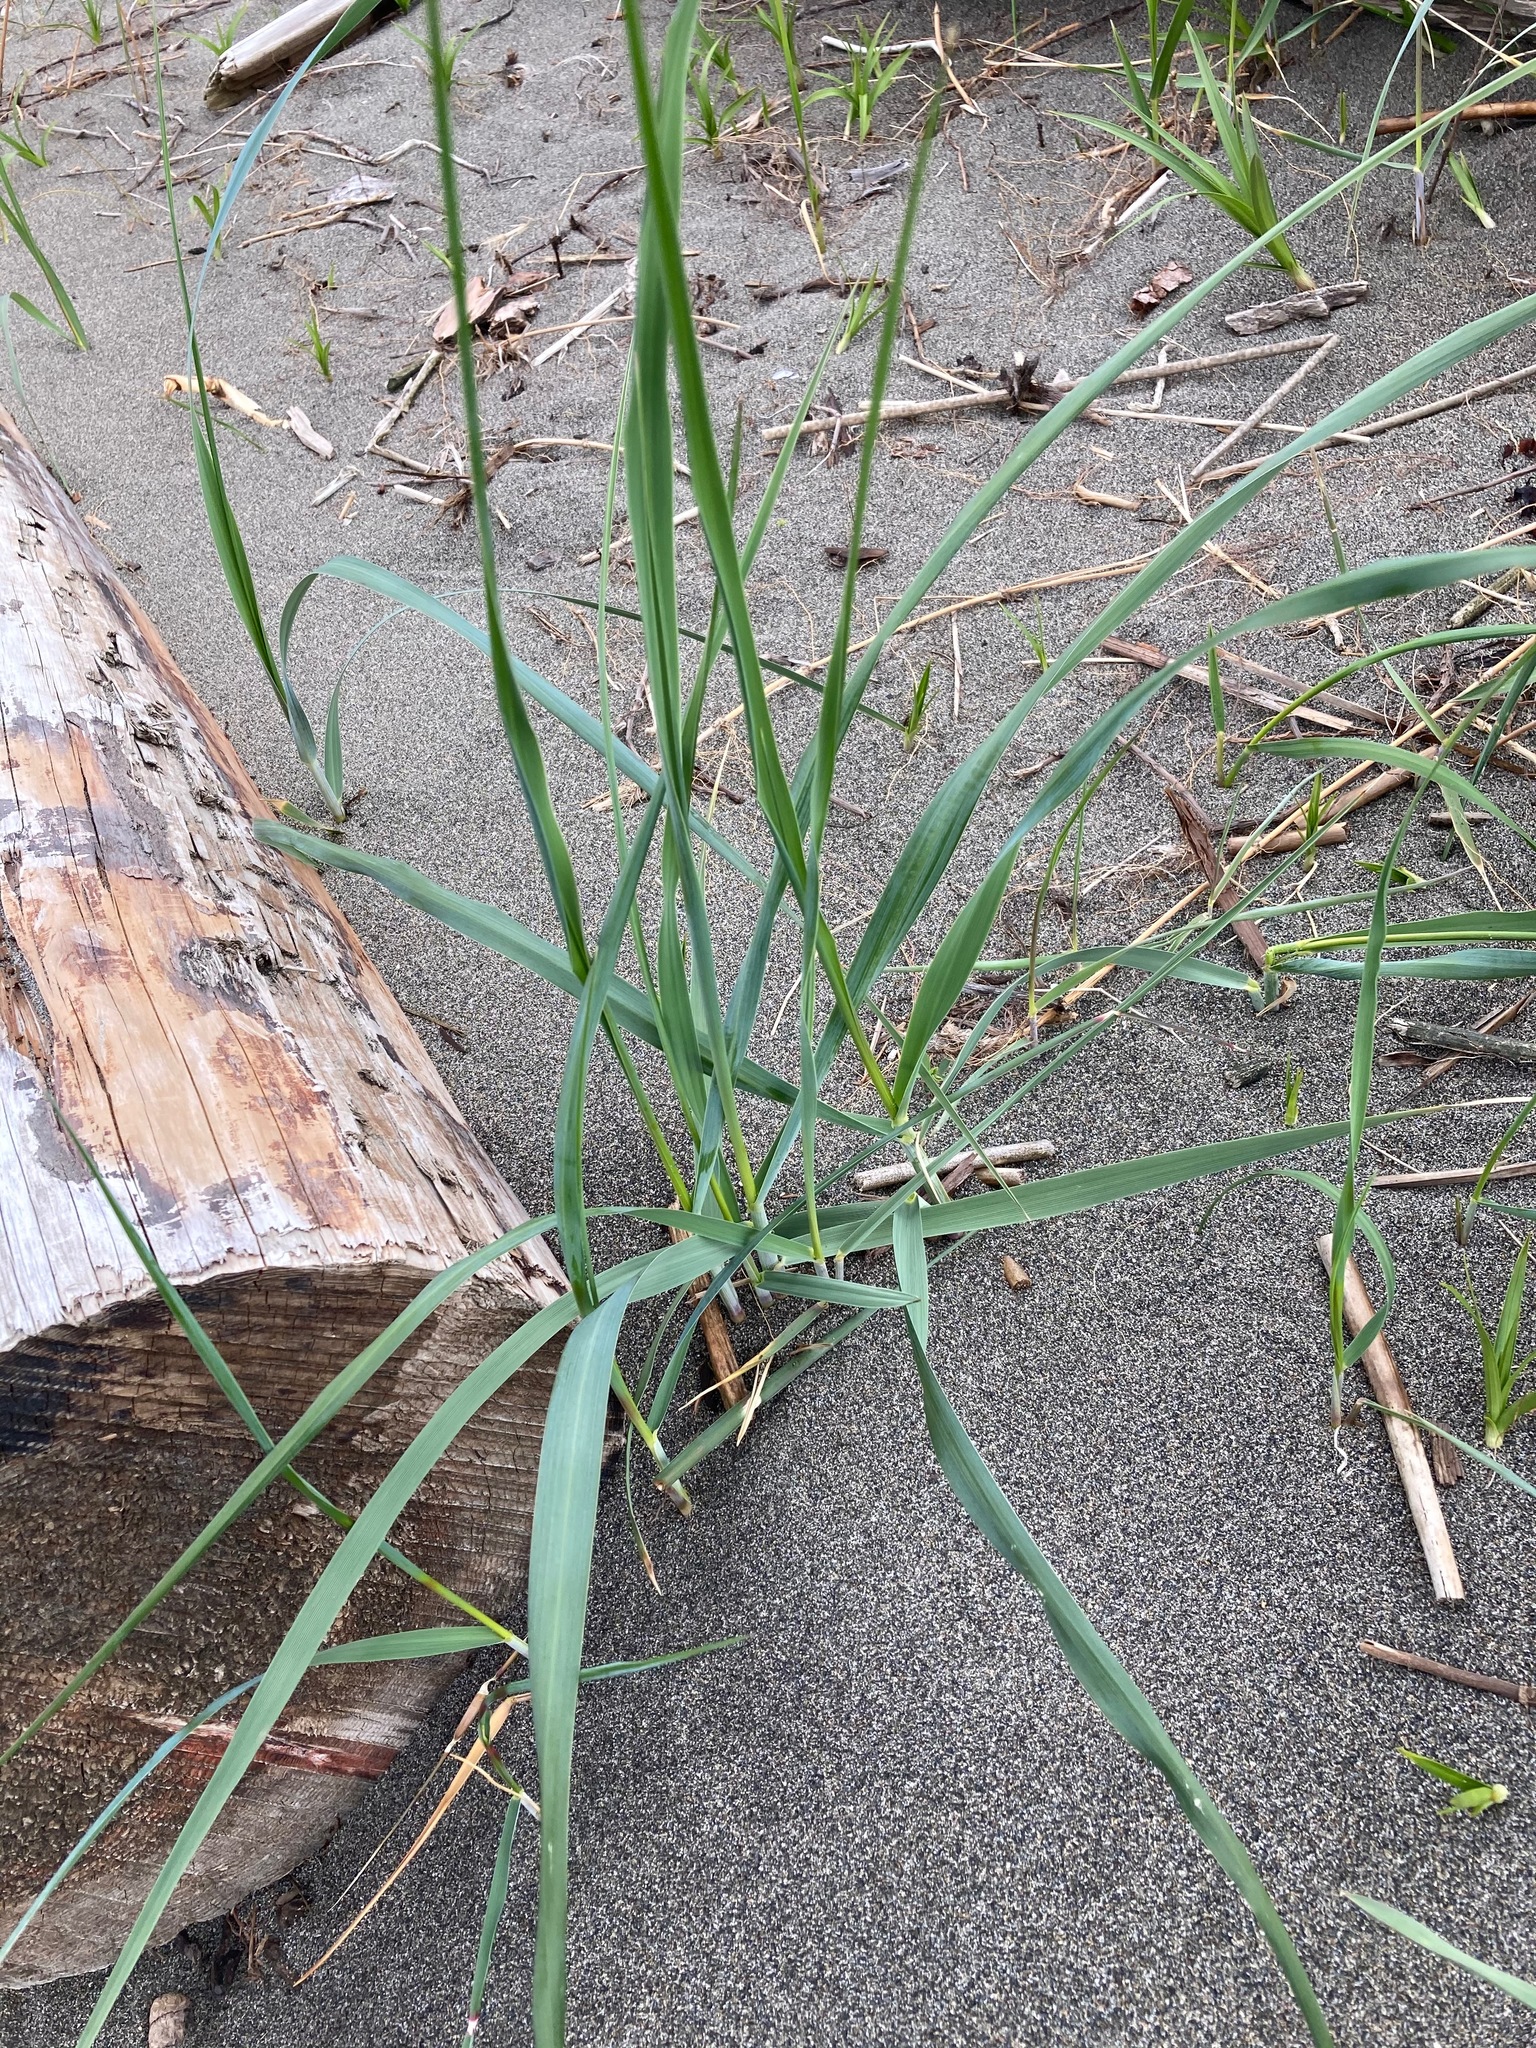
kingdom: Plantae
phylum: Tracheophyta
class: Liliopsida
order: Poales
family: Poaceae
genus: Leymus
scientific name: Leymus mollis
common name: American dune grass
